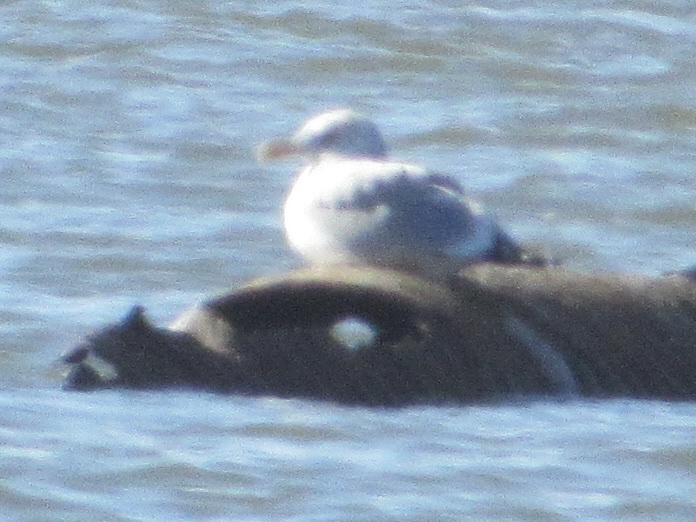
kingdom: Animalia
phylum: Chordata
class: Aves
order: Charadriiformes
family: Laridae
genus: Larus
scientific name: Larus argentatus
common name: Herring gull
